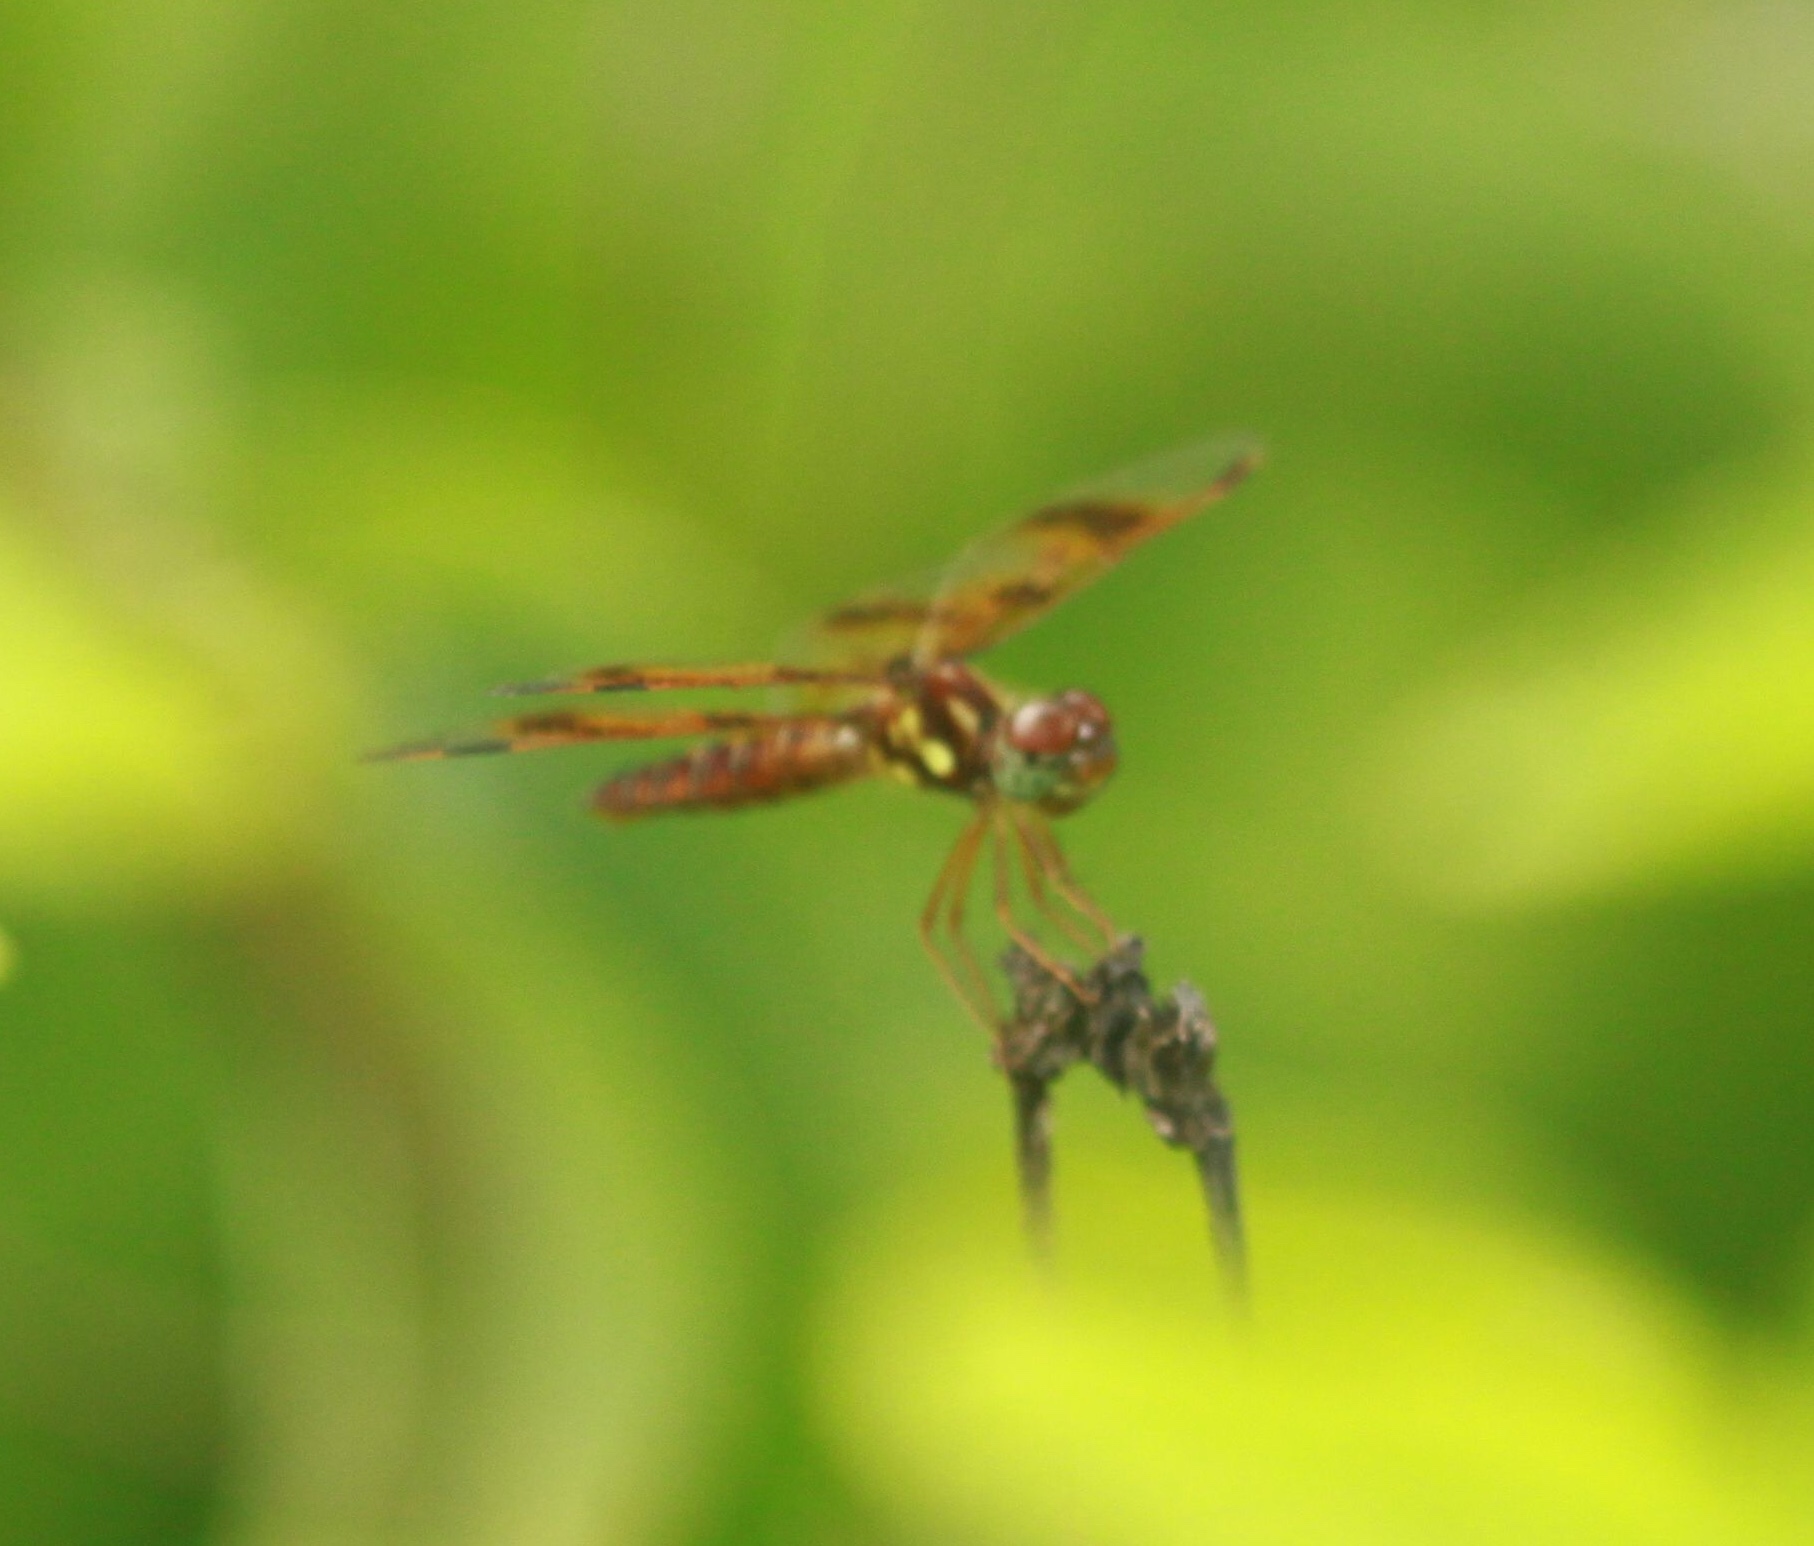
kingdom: Animalia
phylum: Arthropoda
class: Insecta
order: Odonata
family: Libellulidae
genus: Celithemis
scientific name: Celithemis eponina
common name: Halloween pennant
